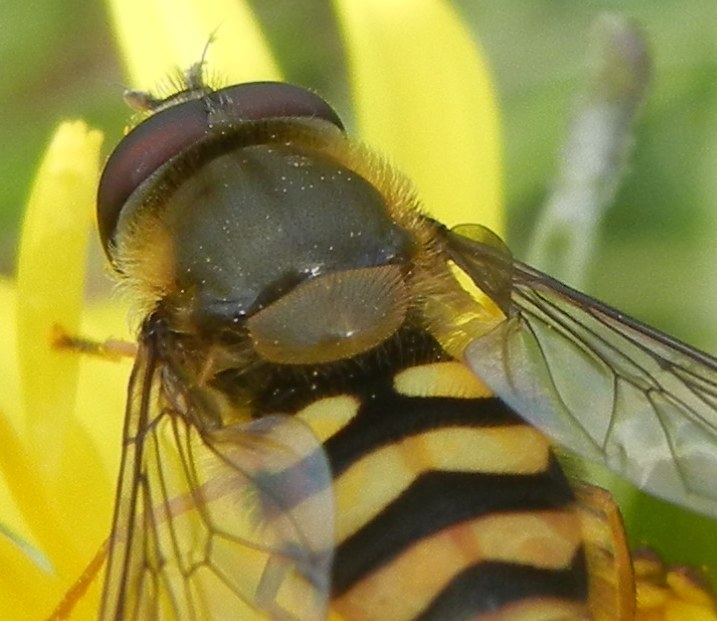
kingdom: Animalia
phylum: Arthropoda
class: Insecta
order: Diptera
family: Syrphidae
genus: Syrphus
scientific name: Syrphus torvus
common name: Hairy-eyed flower fly
